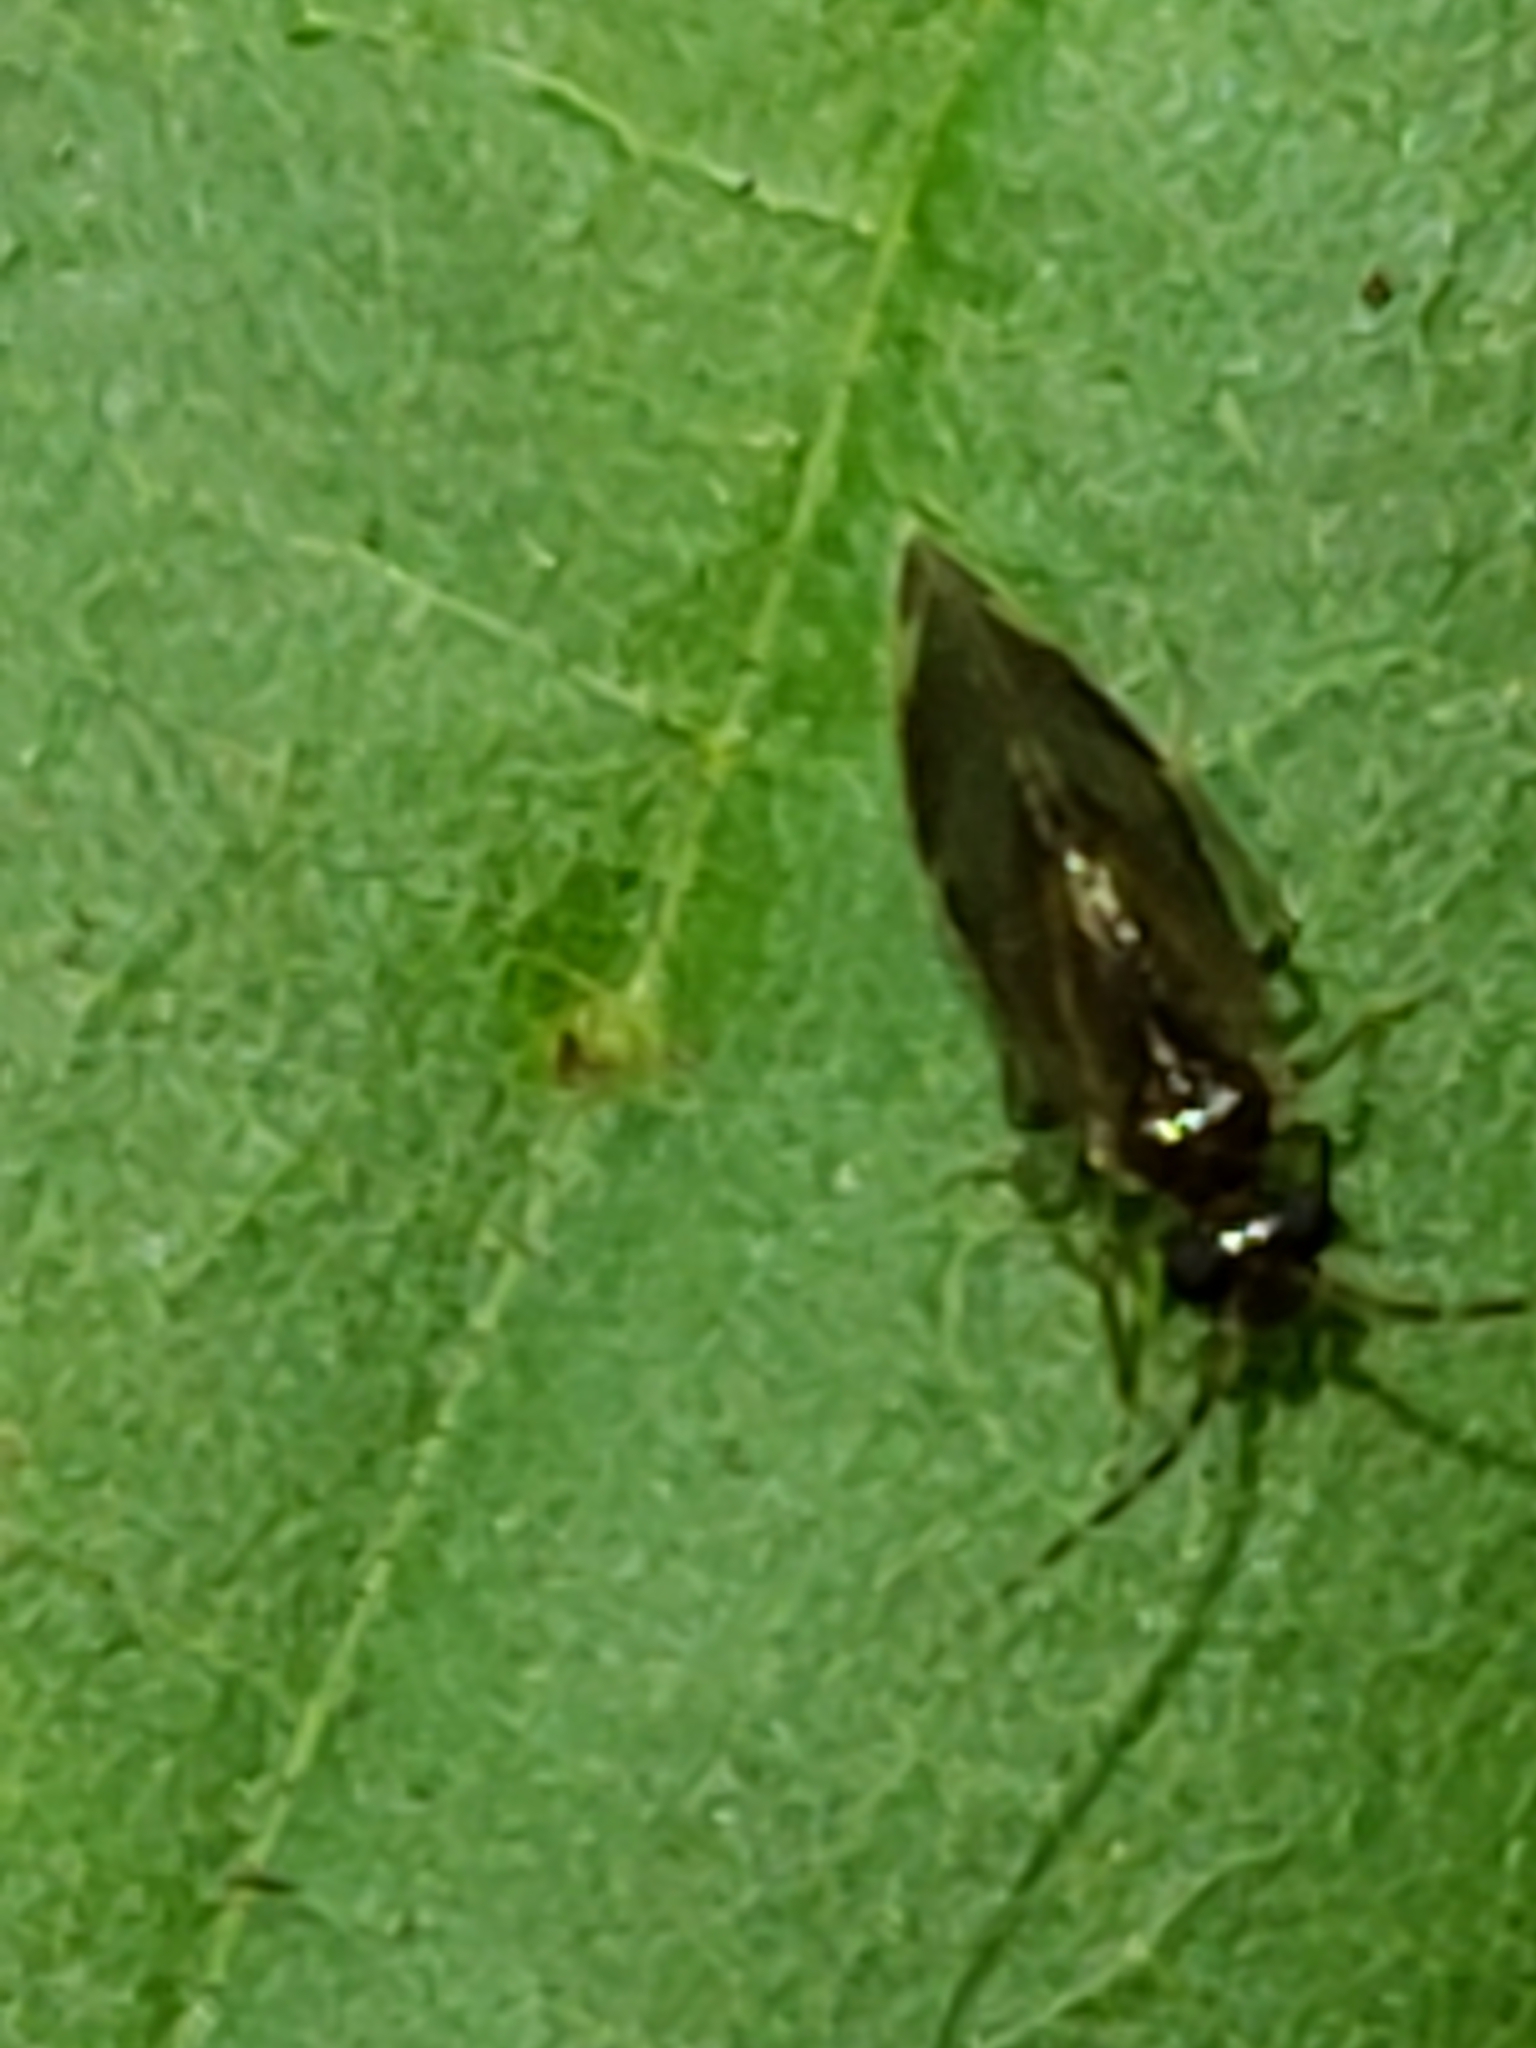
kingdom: Animalia
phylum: Arthropoda
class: Insecta
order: Psocodea
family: Amphipsocidae
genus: Polypsocus
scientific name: Polypsocus corruptus
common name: Corrupt barklouse
